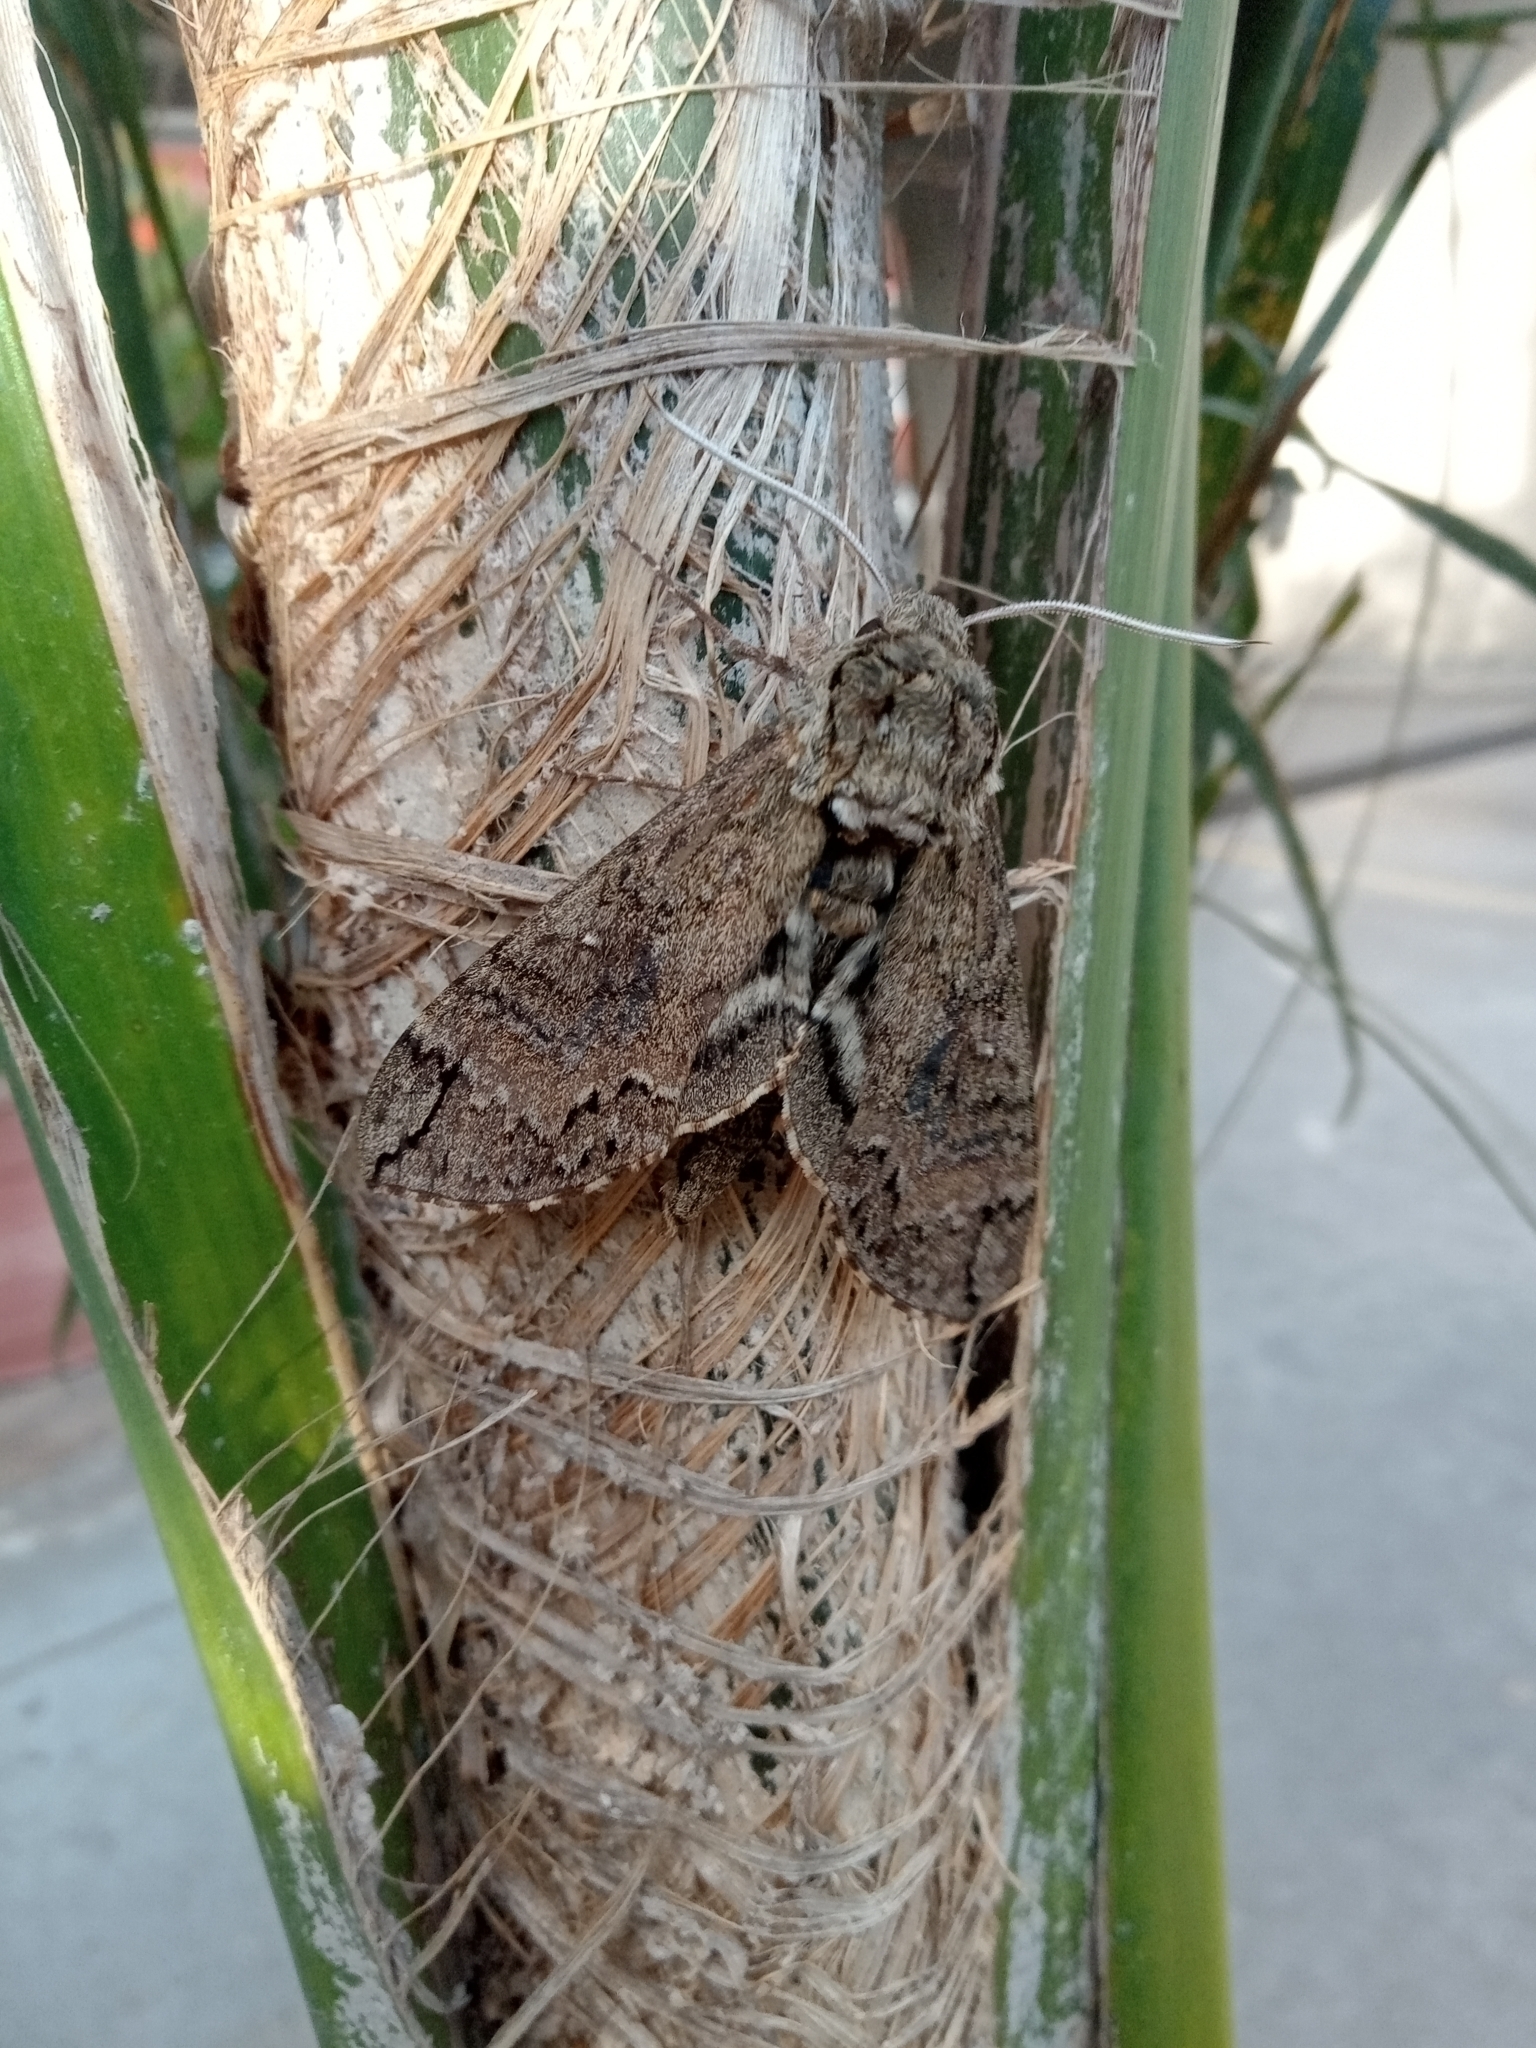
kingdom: Animalia
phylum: Arthropoda
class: Insecta
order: Lepidoptera
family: Sphingidae
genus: Manduca
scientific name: Manduca afflicta
